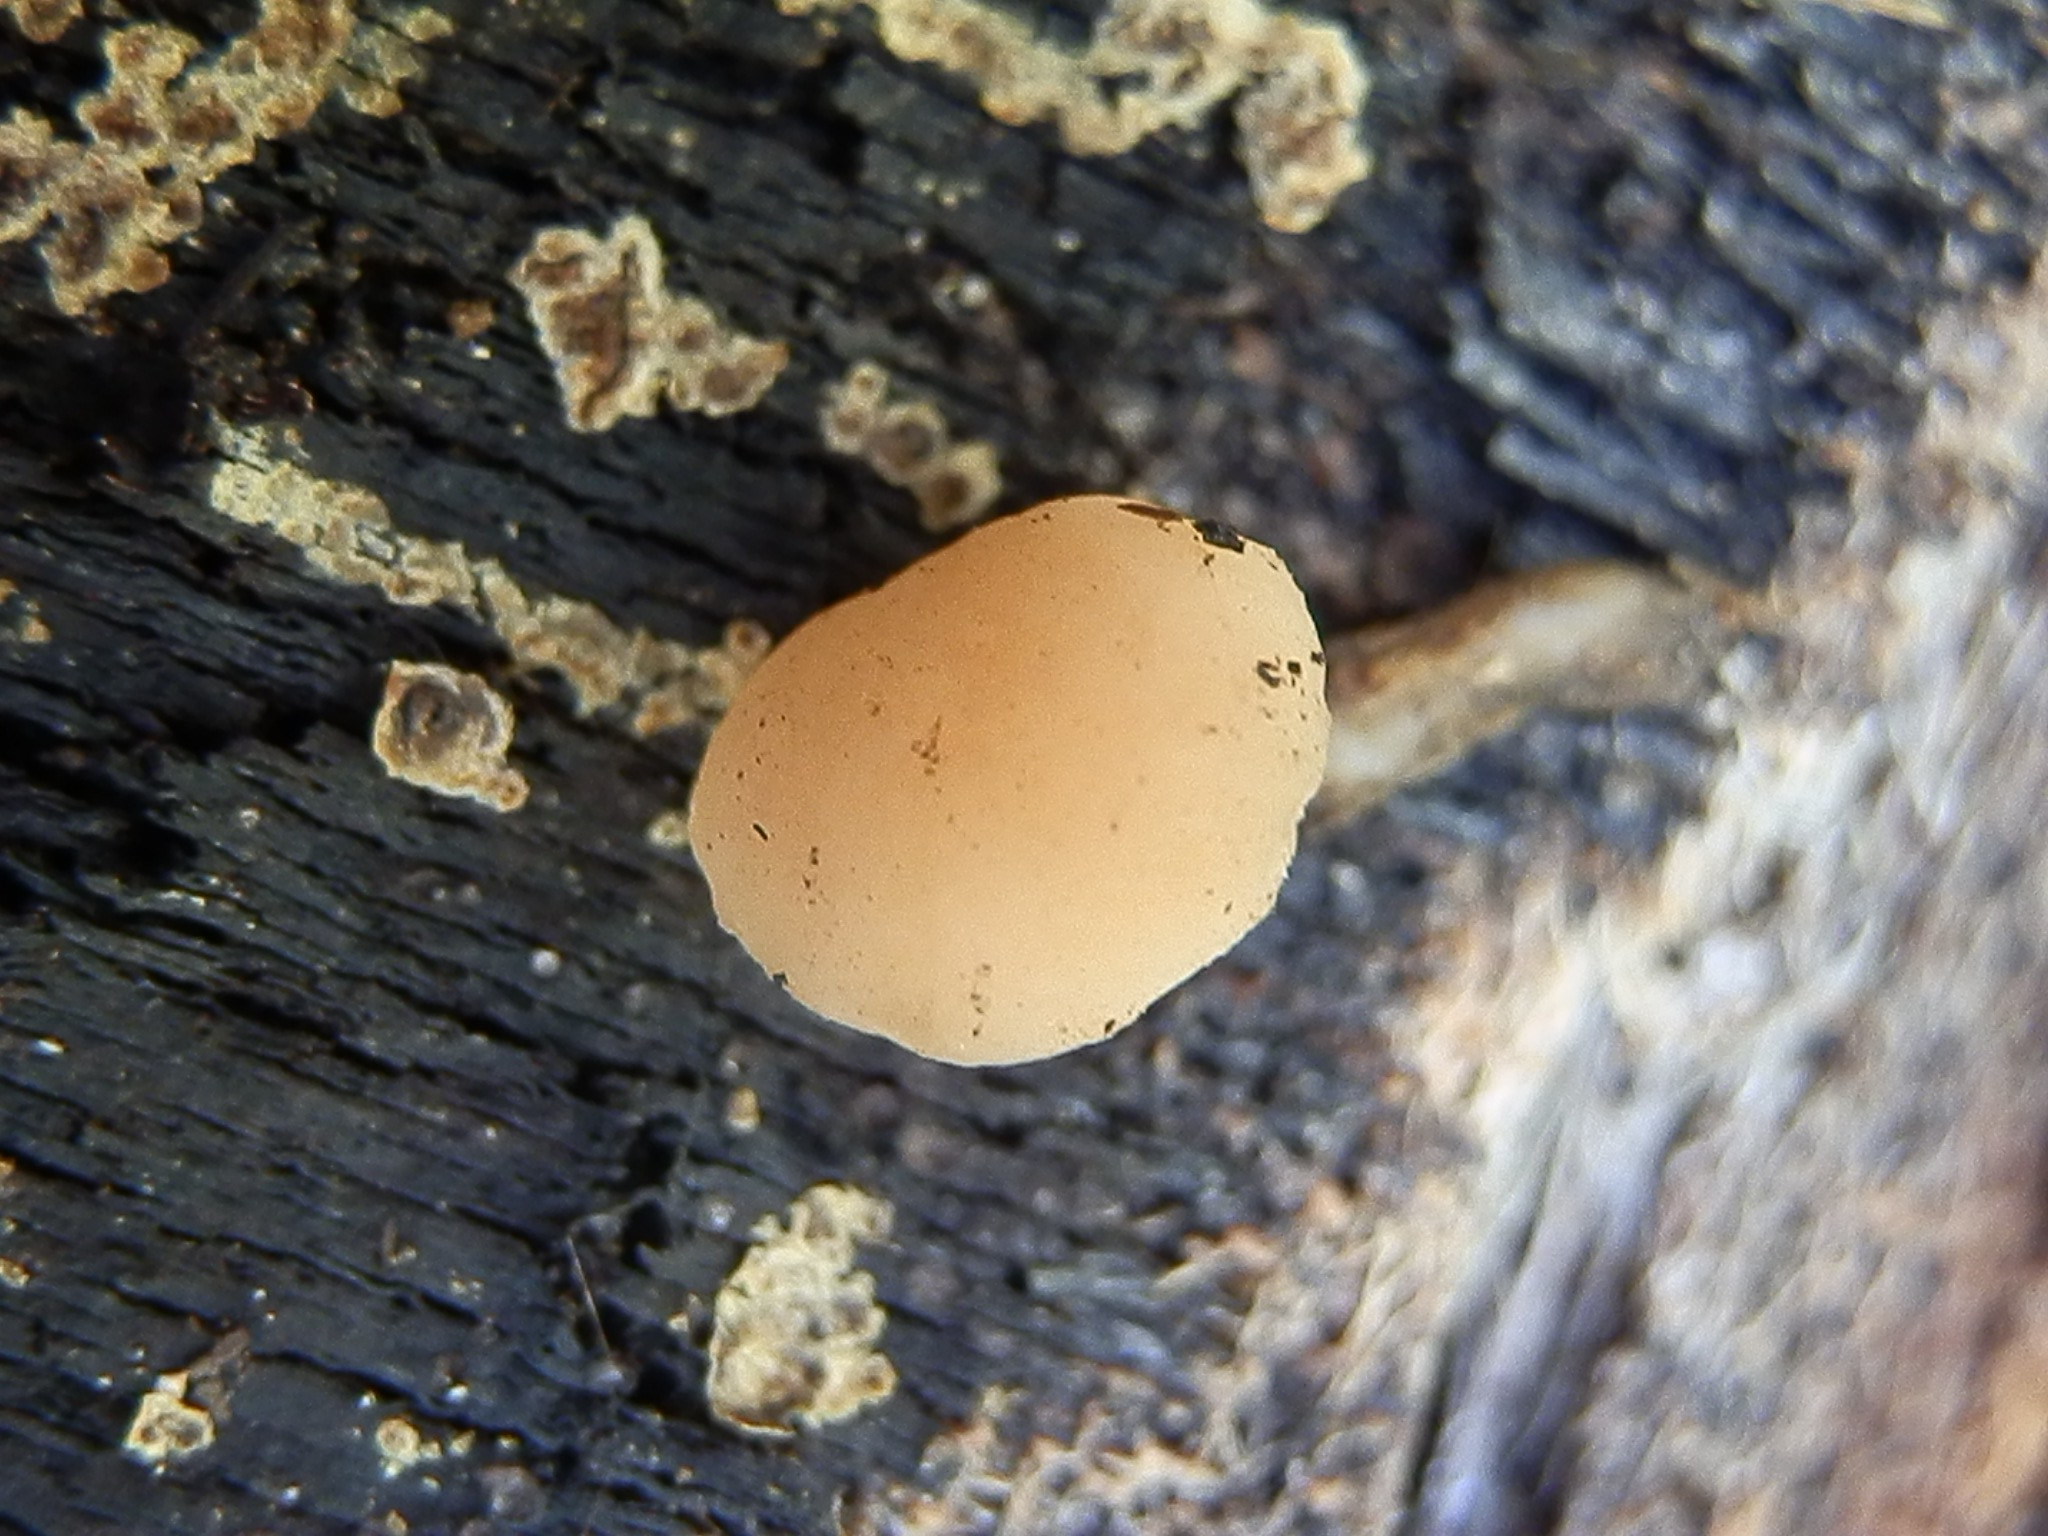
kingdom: Fungi
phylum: Ascomycota
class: Leotiomycetes
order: Rhytismatales
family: Cudoniaceae
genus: Cudonia
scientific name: Cudonia confusa
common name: Cinnamon jellybaby
